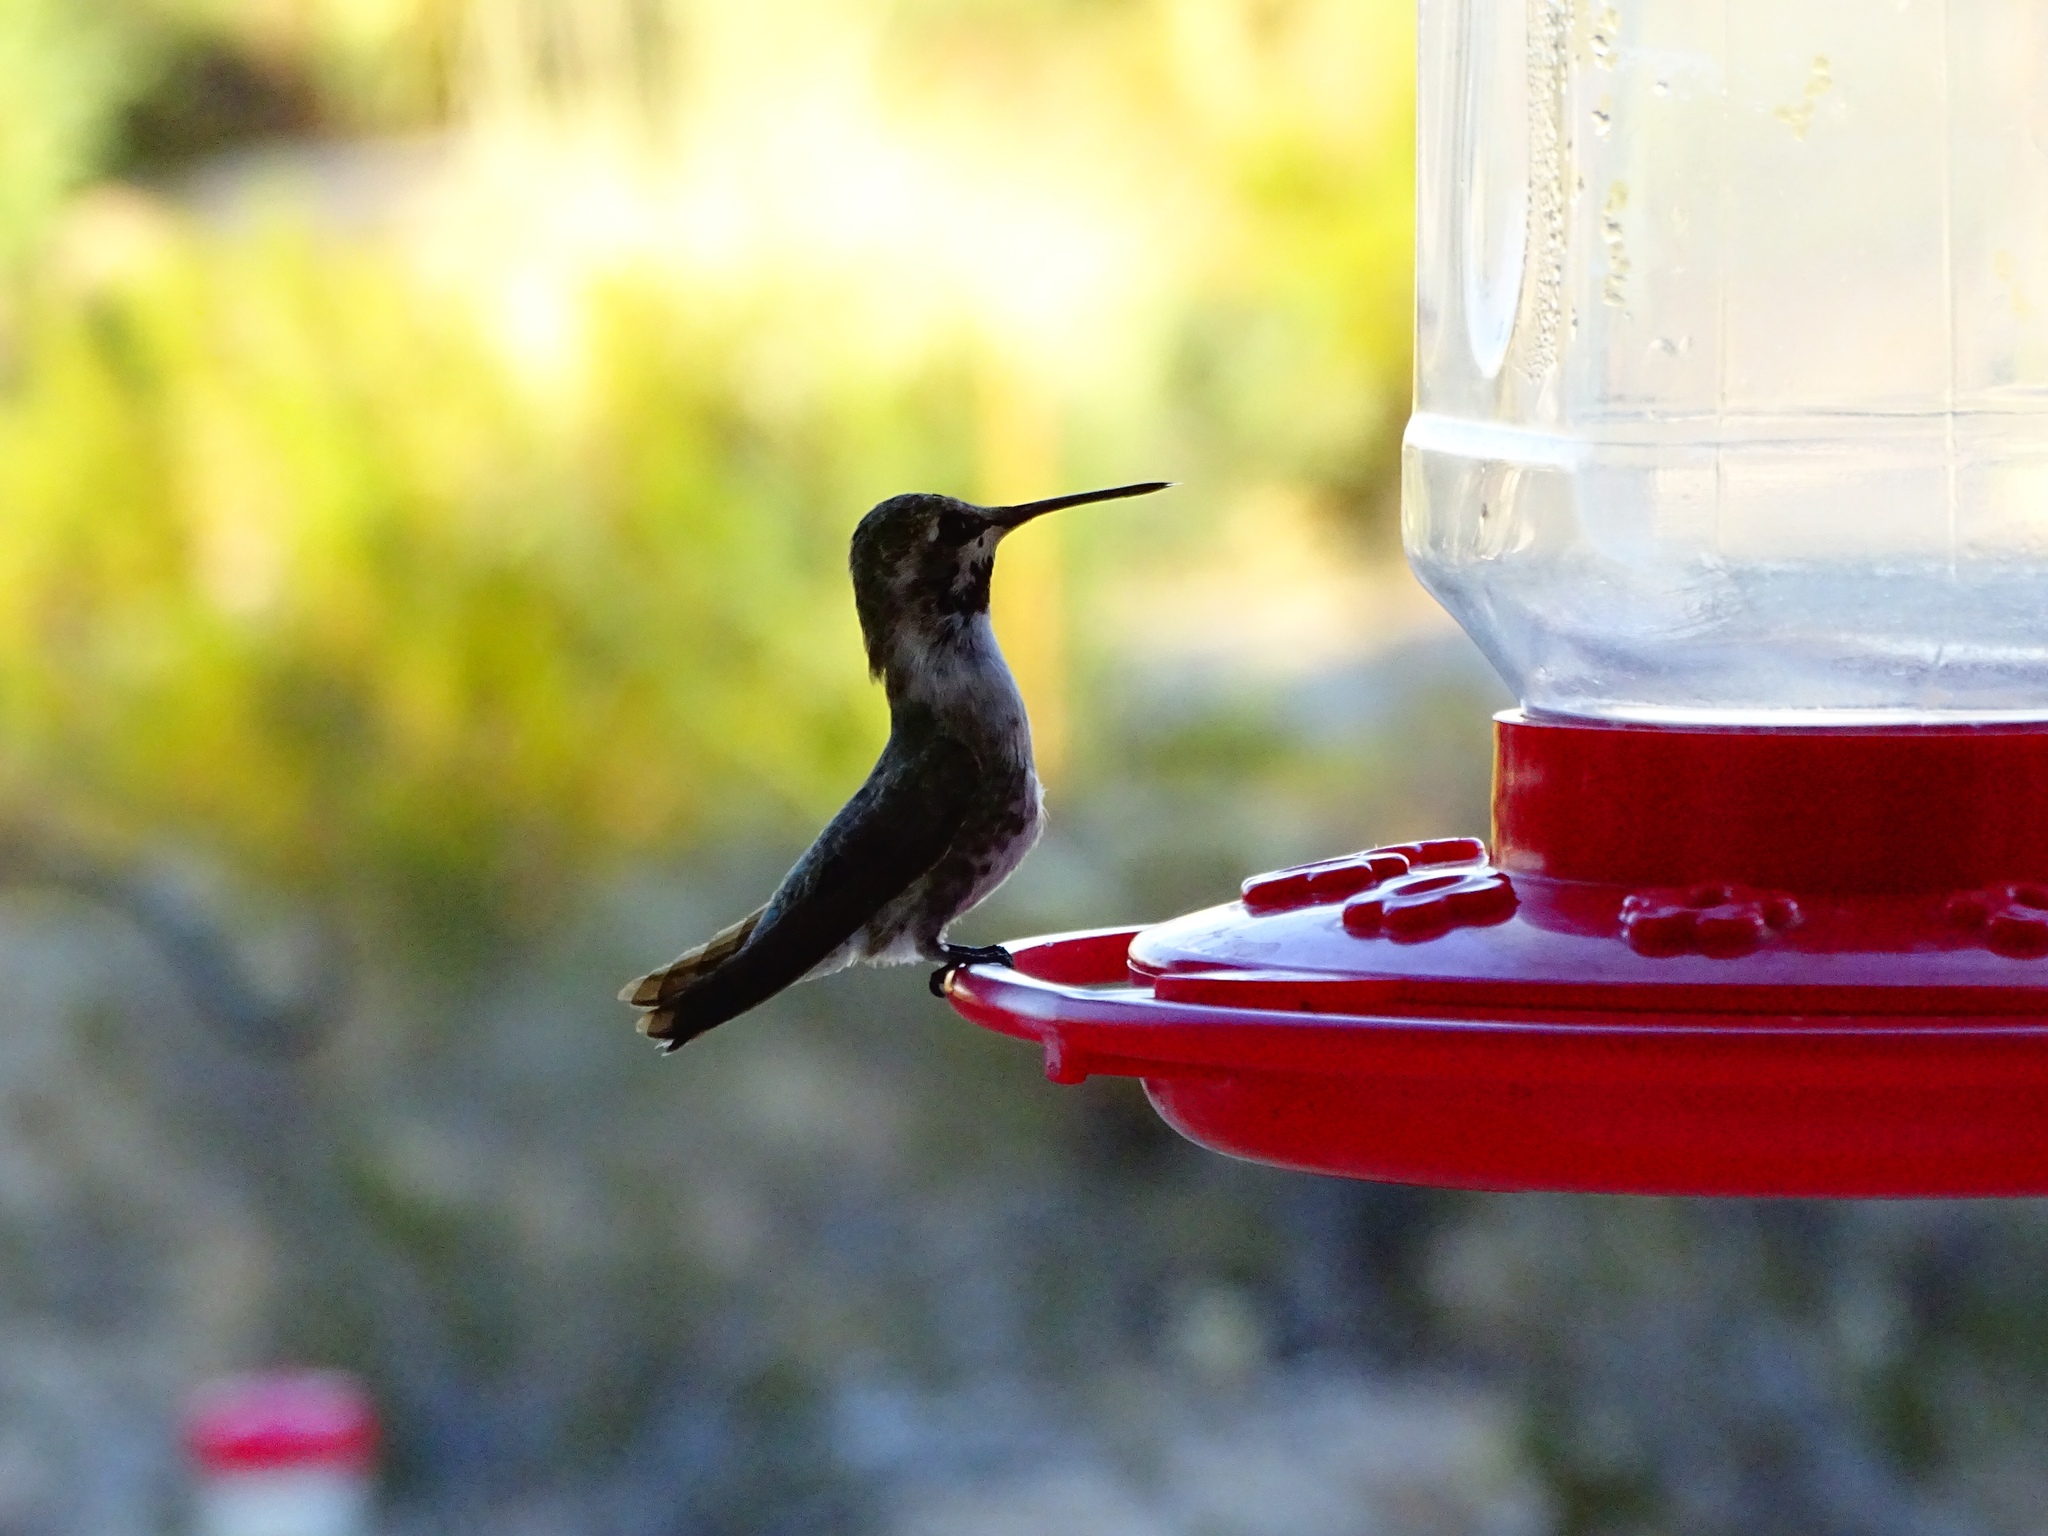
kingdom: Animalia
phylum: Chordata
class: Aves
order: Apodiformes
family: Trochilidae
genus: Calypte
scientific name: Calypte anna
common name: Anna's hummingbird
